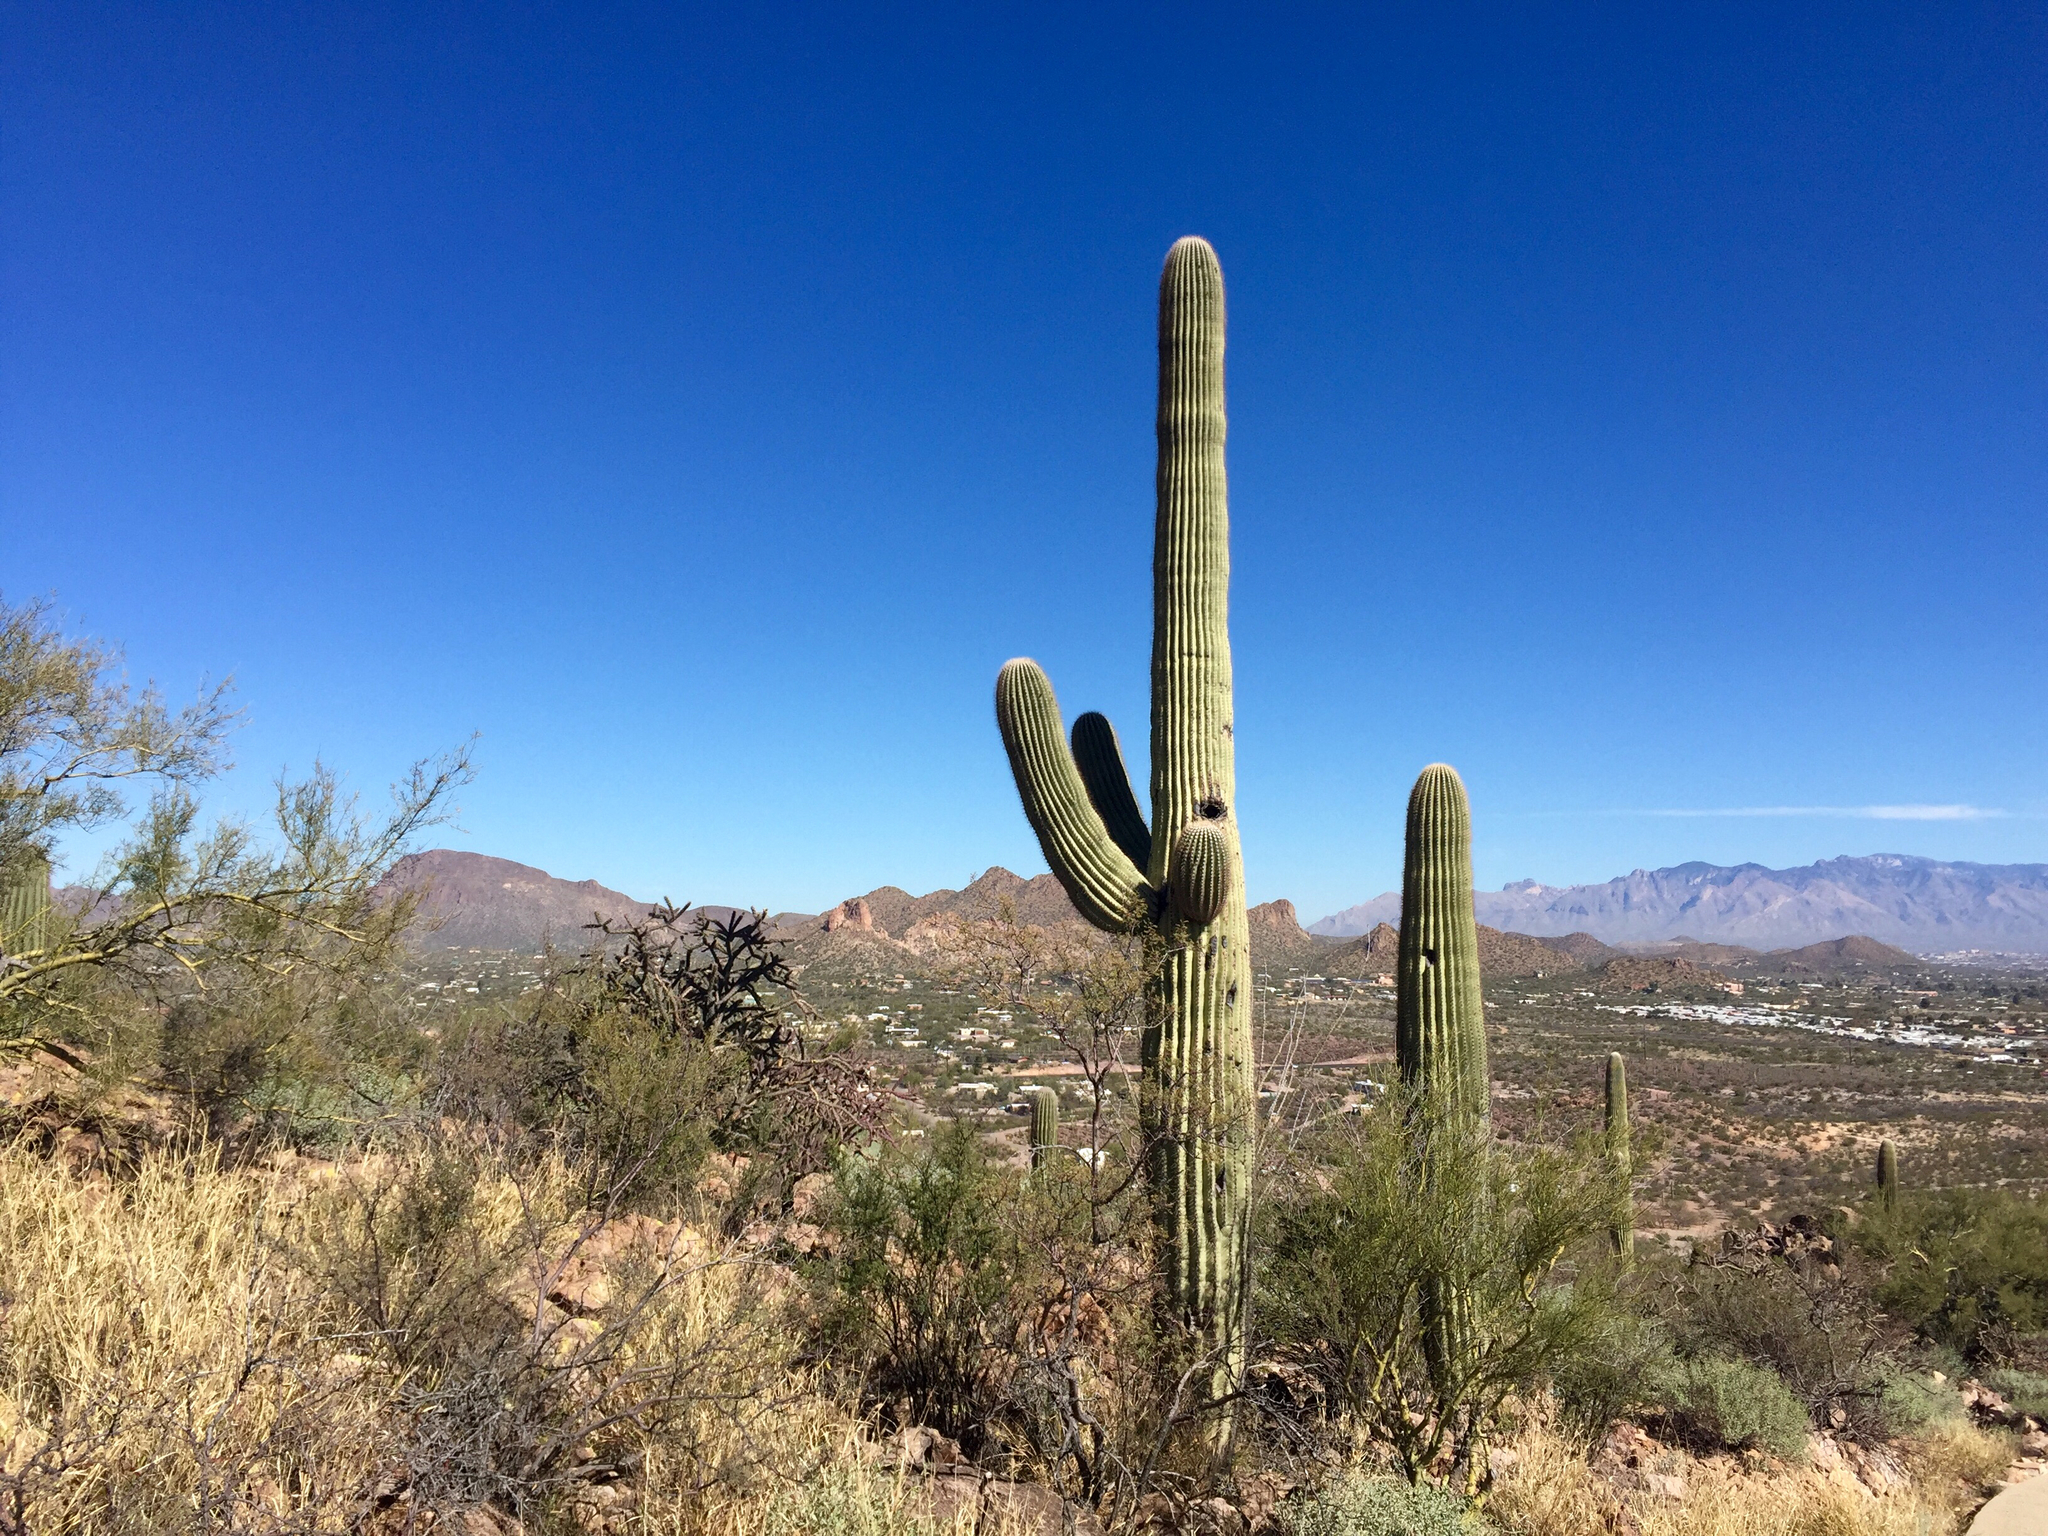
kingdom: Plantae
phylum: Tracheophyta
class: Magnoliopsida
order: Caryophyllales
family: Cactaceae
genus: Carnegiea
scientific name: Carnegiea gigantea
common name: Saguaro
